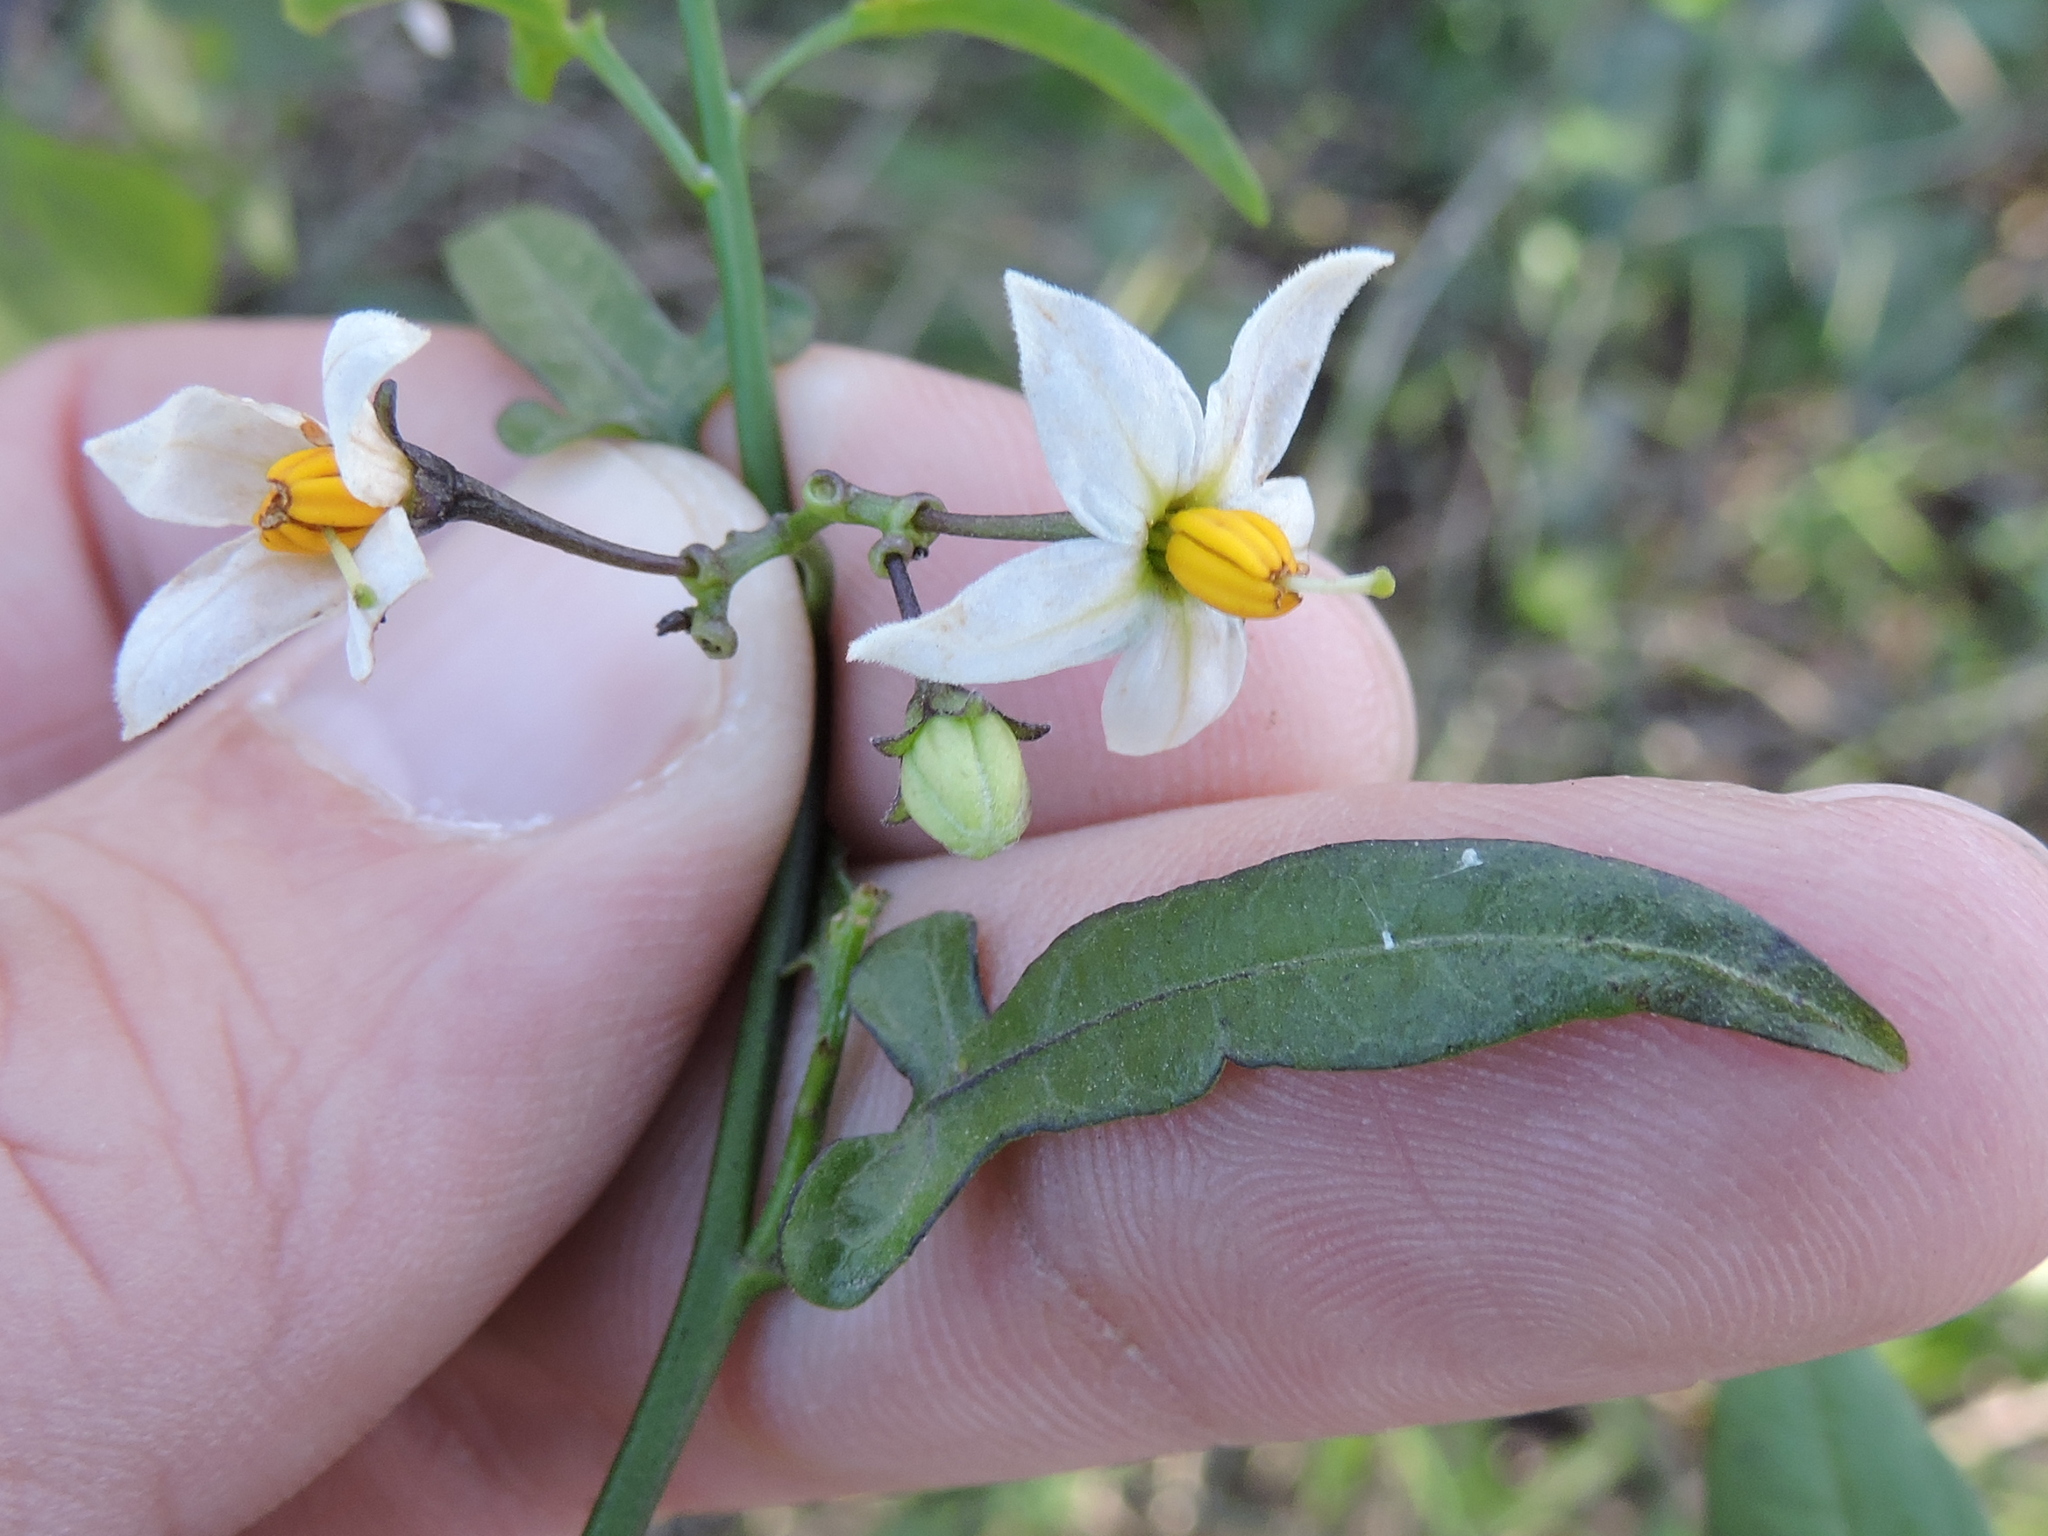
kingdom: Plantae
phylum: Tracheophyta
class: Magnoliopsida
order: Solanales
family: Solanaceae
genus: Solanum
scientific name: Solanum triquetrum
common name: Texas nightshade
